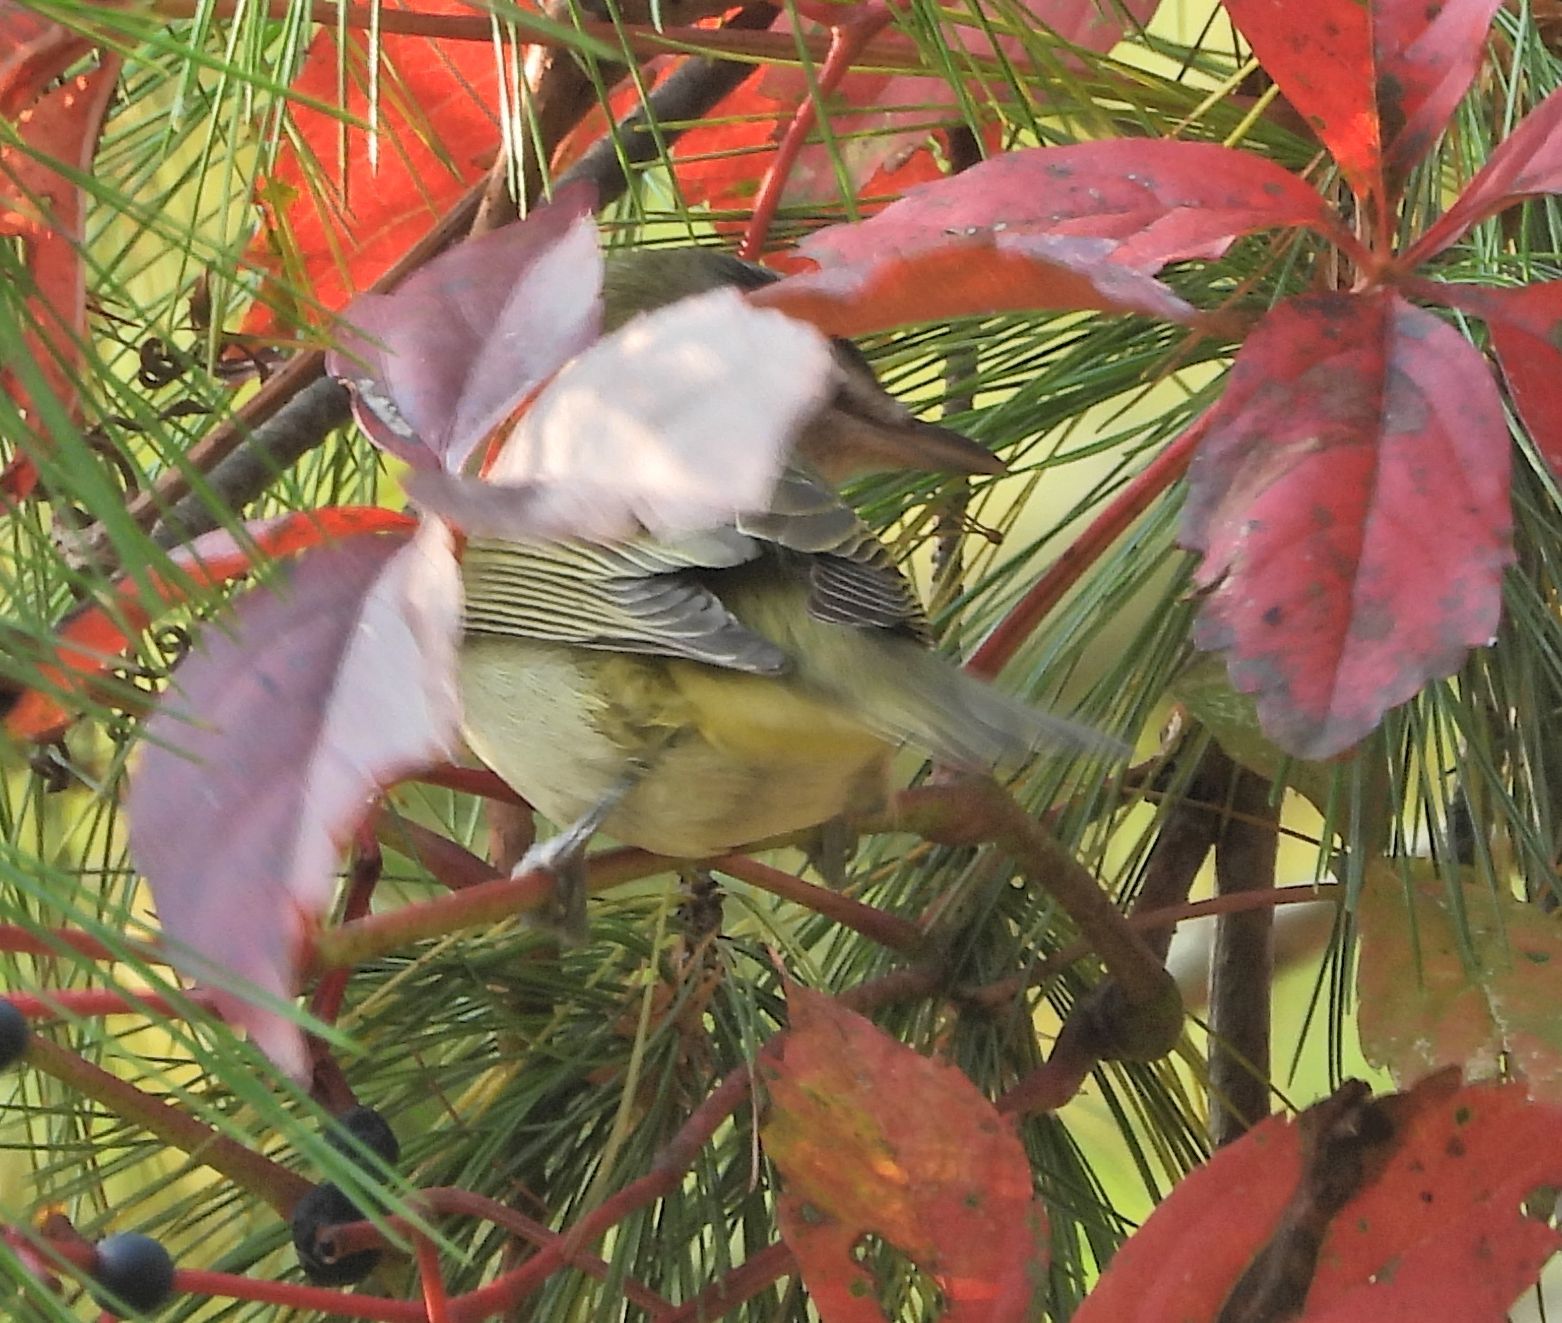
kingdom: Animalia
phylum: Chordata
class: Aves
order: Passeriformes
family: Vireonidae
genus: Vireo
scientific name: Vireo olivaceus
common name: Red-eyed vireo
